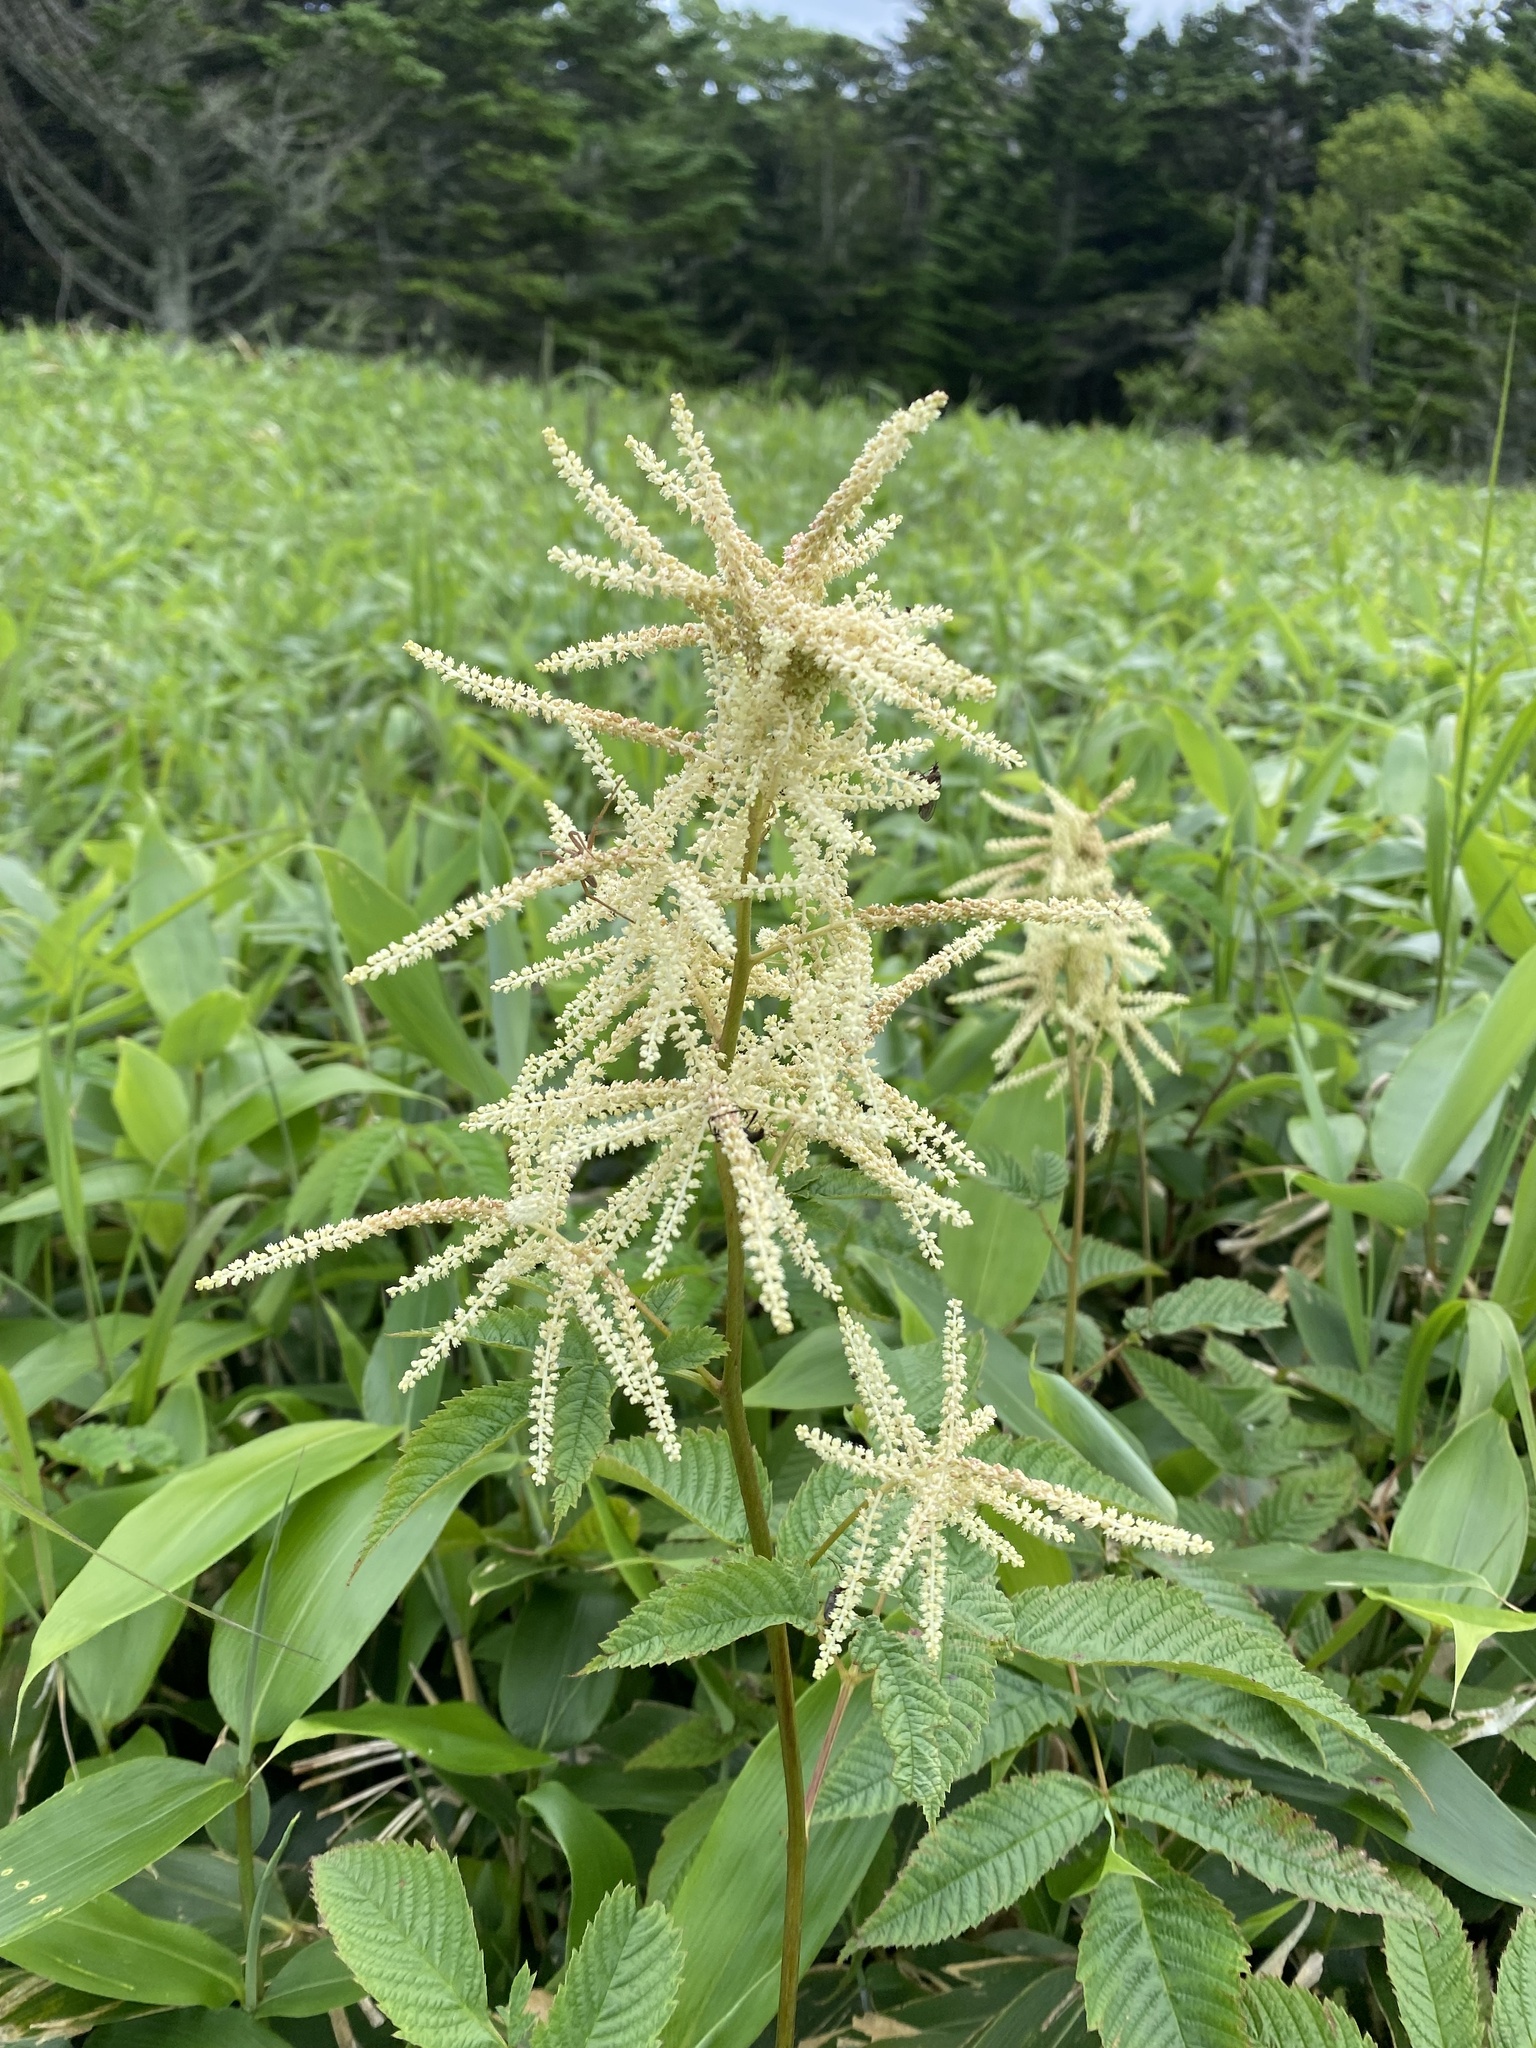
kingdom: Plantae
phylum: Tracheophyta
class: Magnoliopsida
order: Rosales
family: Rosaceae
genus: Aruncus
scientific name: Aruncus dioicus
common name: Buck's-beard
